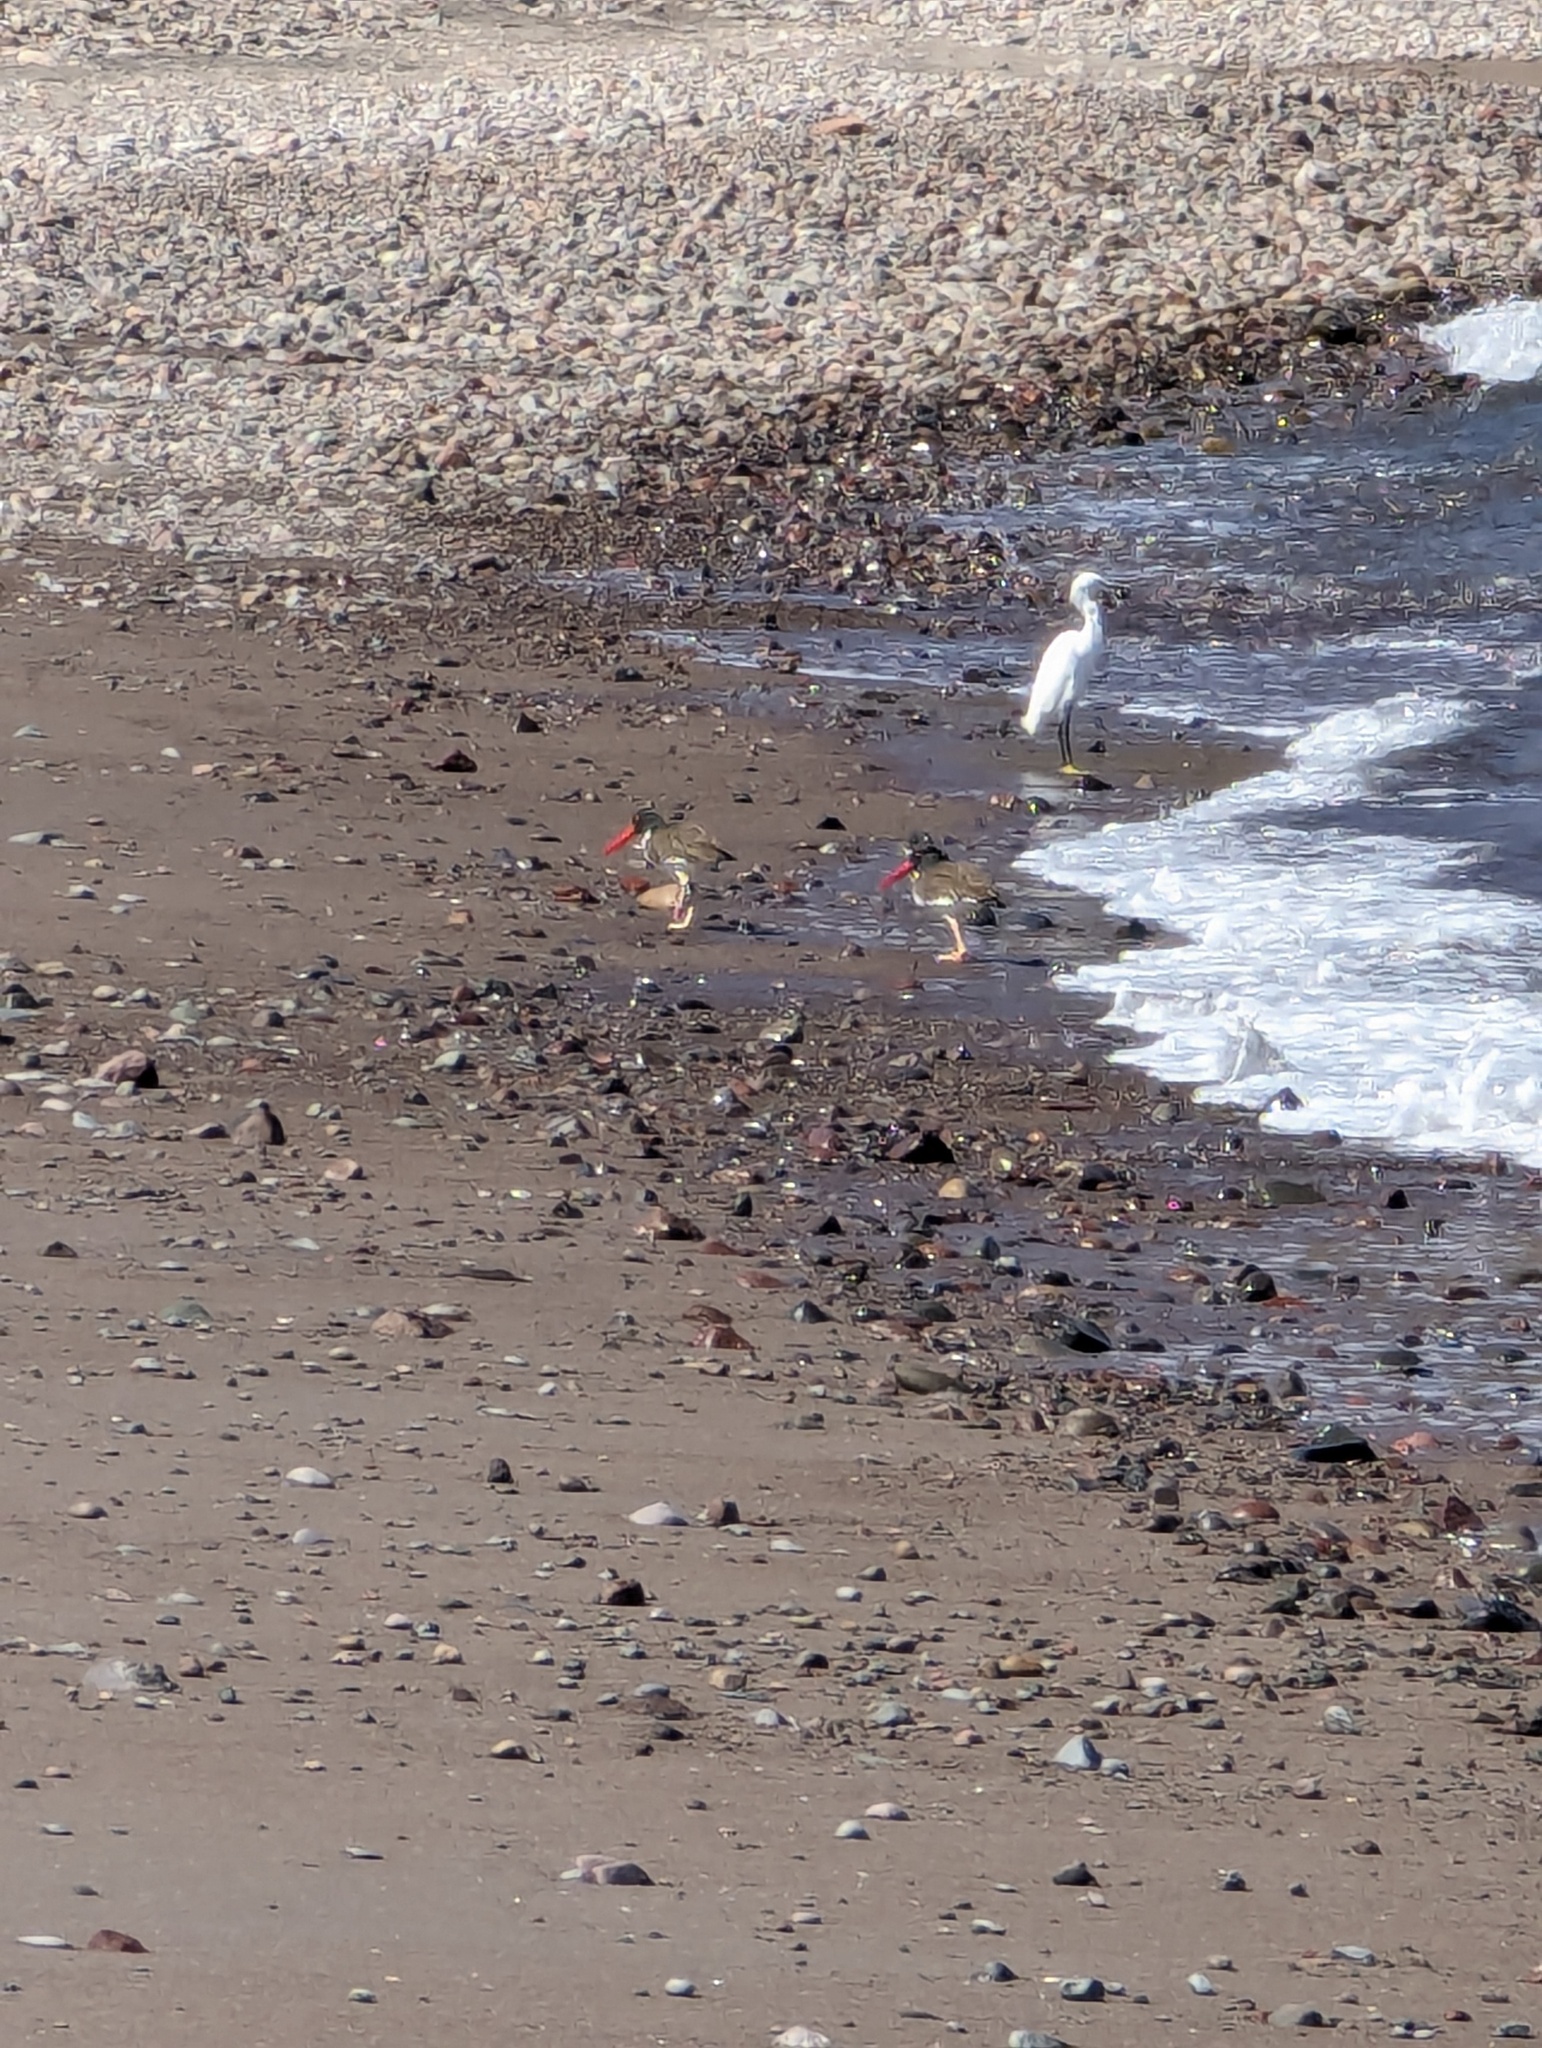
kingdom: Animalia
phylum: Chordata
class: Aves
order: Charadriiformes
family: Haematopodidae
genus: Haematopus
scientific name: Haematopus palliatus
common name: American oystercatcher
